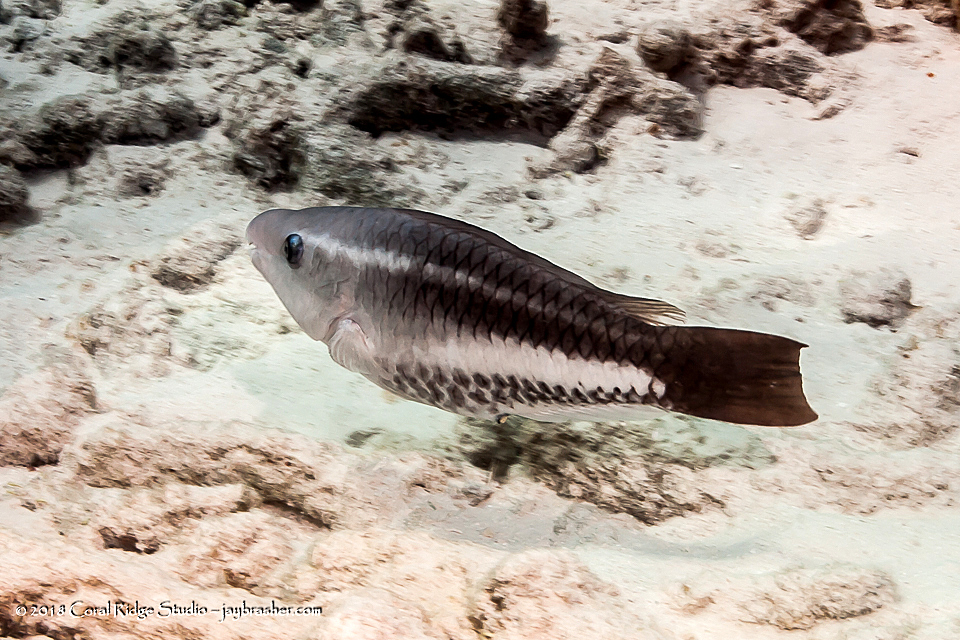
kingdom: Animalia
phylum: Chordata
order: Perciformes
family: Scaridae
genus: Scarus
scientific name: Scarus vetula
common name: Queen parrotfish
